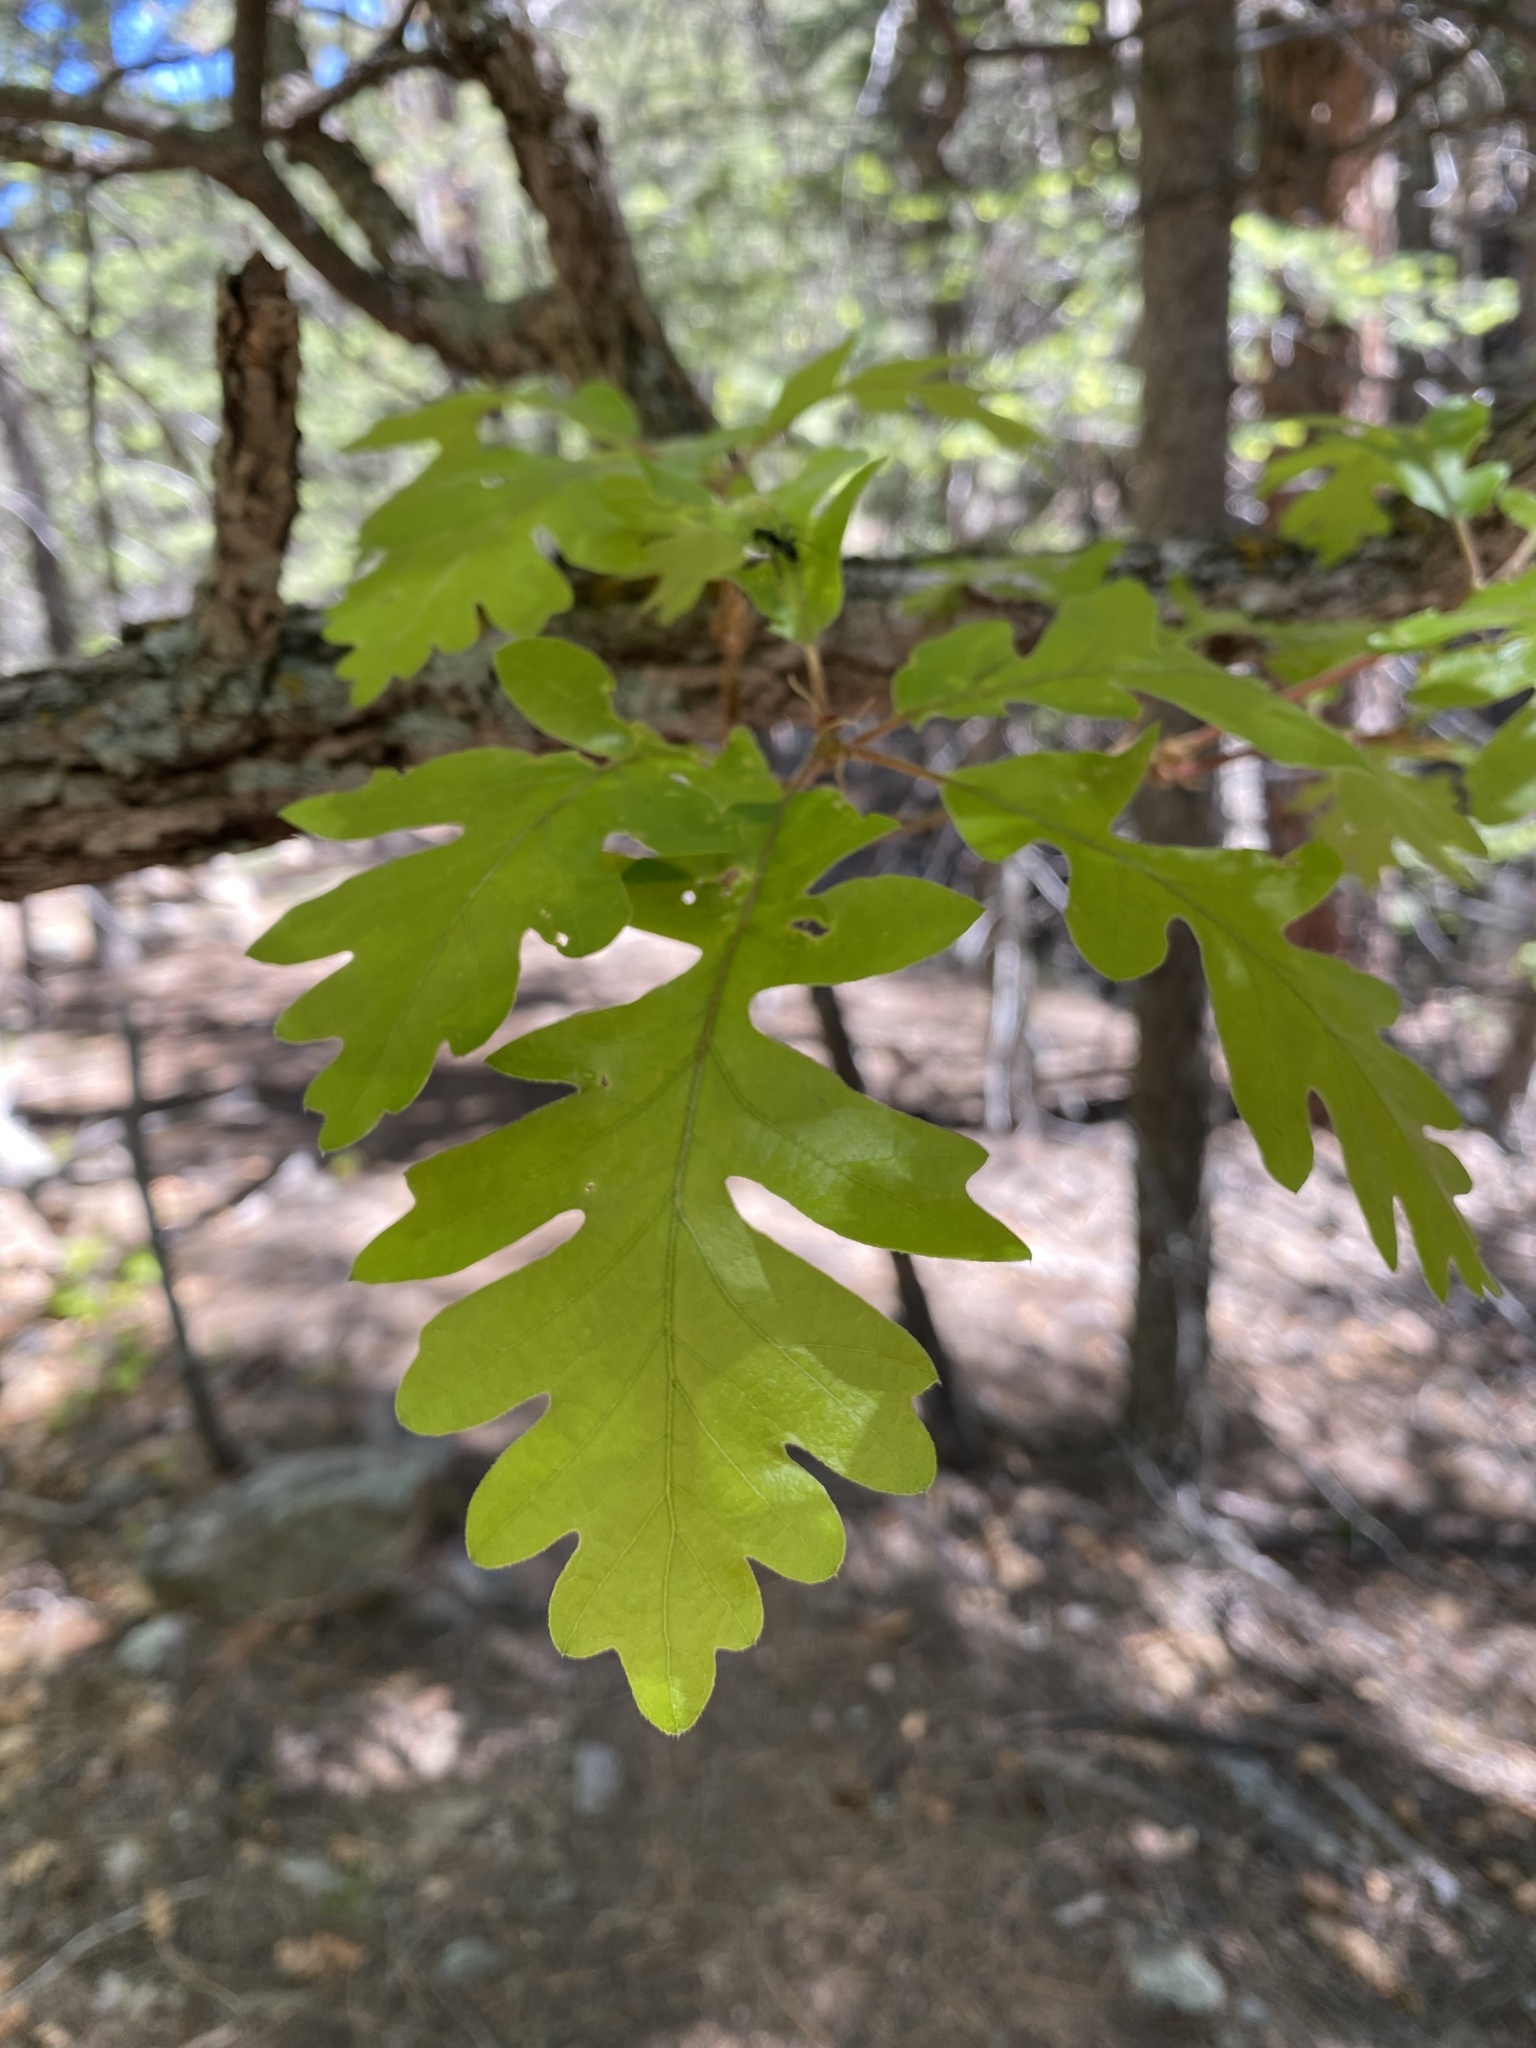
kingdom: Plantae
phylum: Tracheophyta
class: Magnoliopsida
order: Fagales
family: Fagaceae
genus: Quercus
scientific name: Quercus gambelii
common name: Gambel oak
